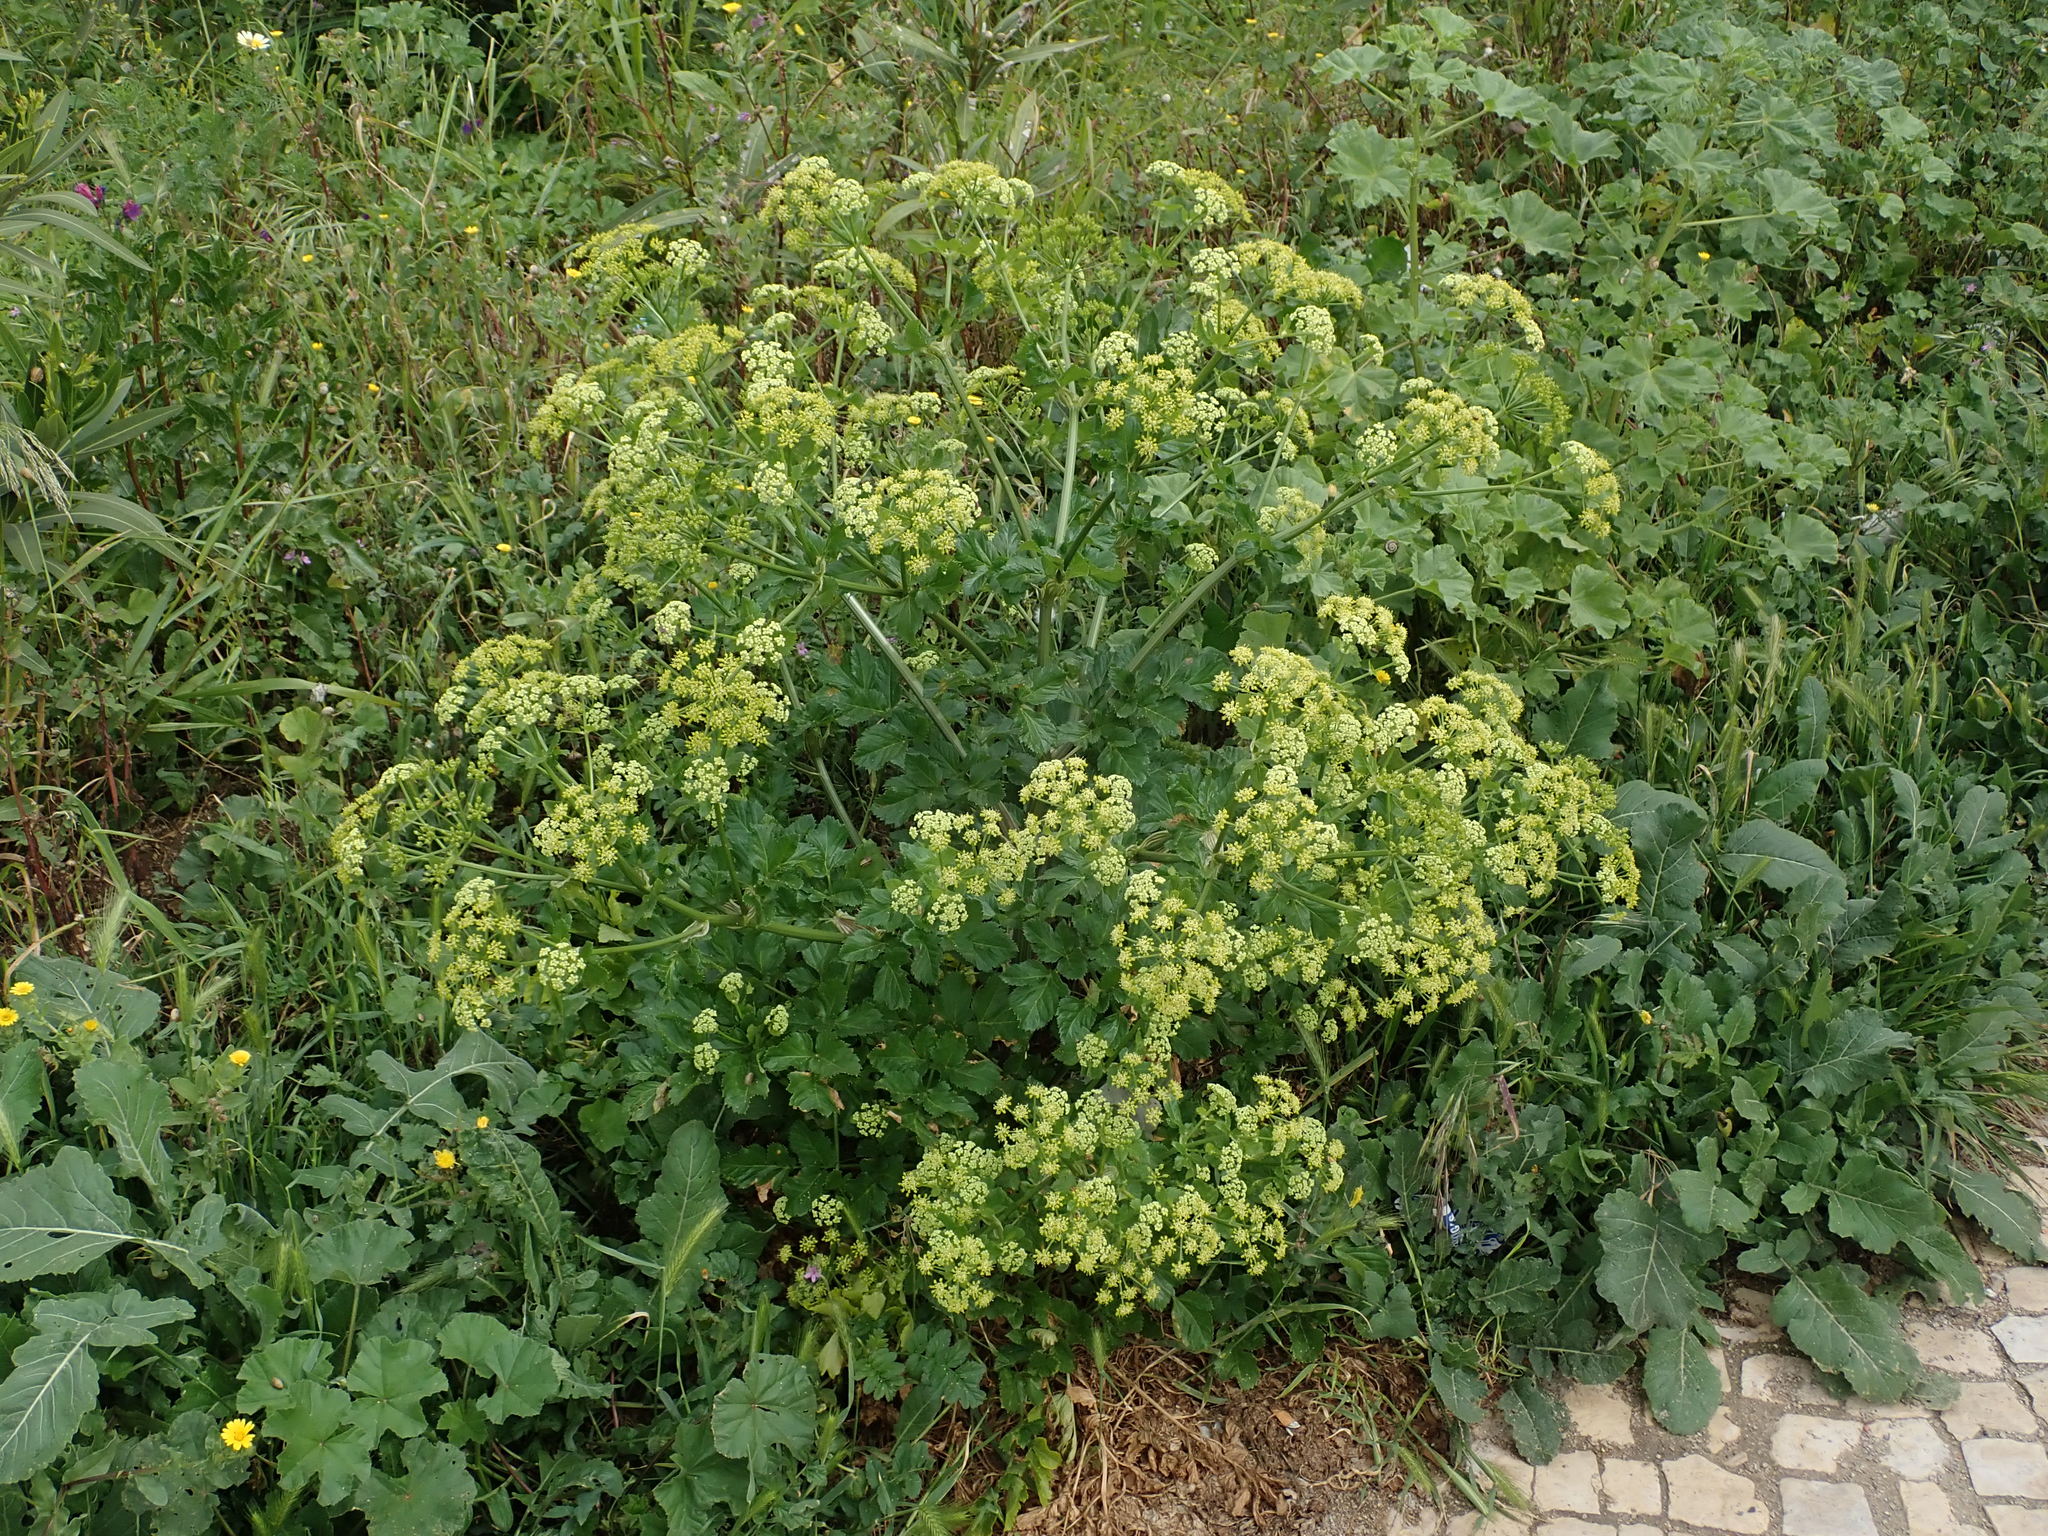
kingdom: Plantae
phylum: Tracheophyta
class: Magnoliopsida
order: Apiales
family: Apiaceae
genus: Smyrnium
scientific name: Smyrnium olusatrum
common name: Alexanders
